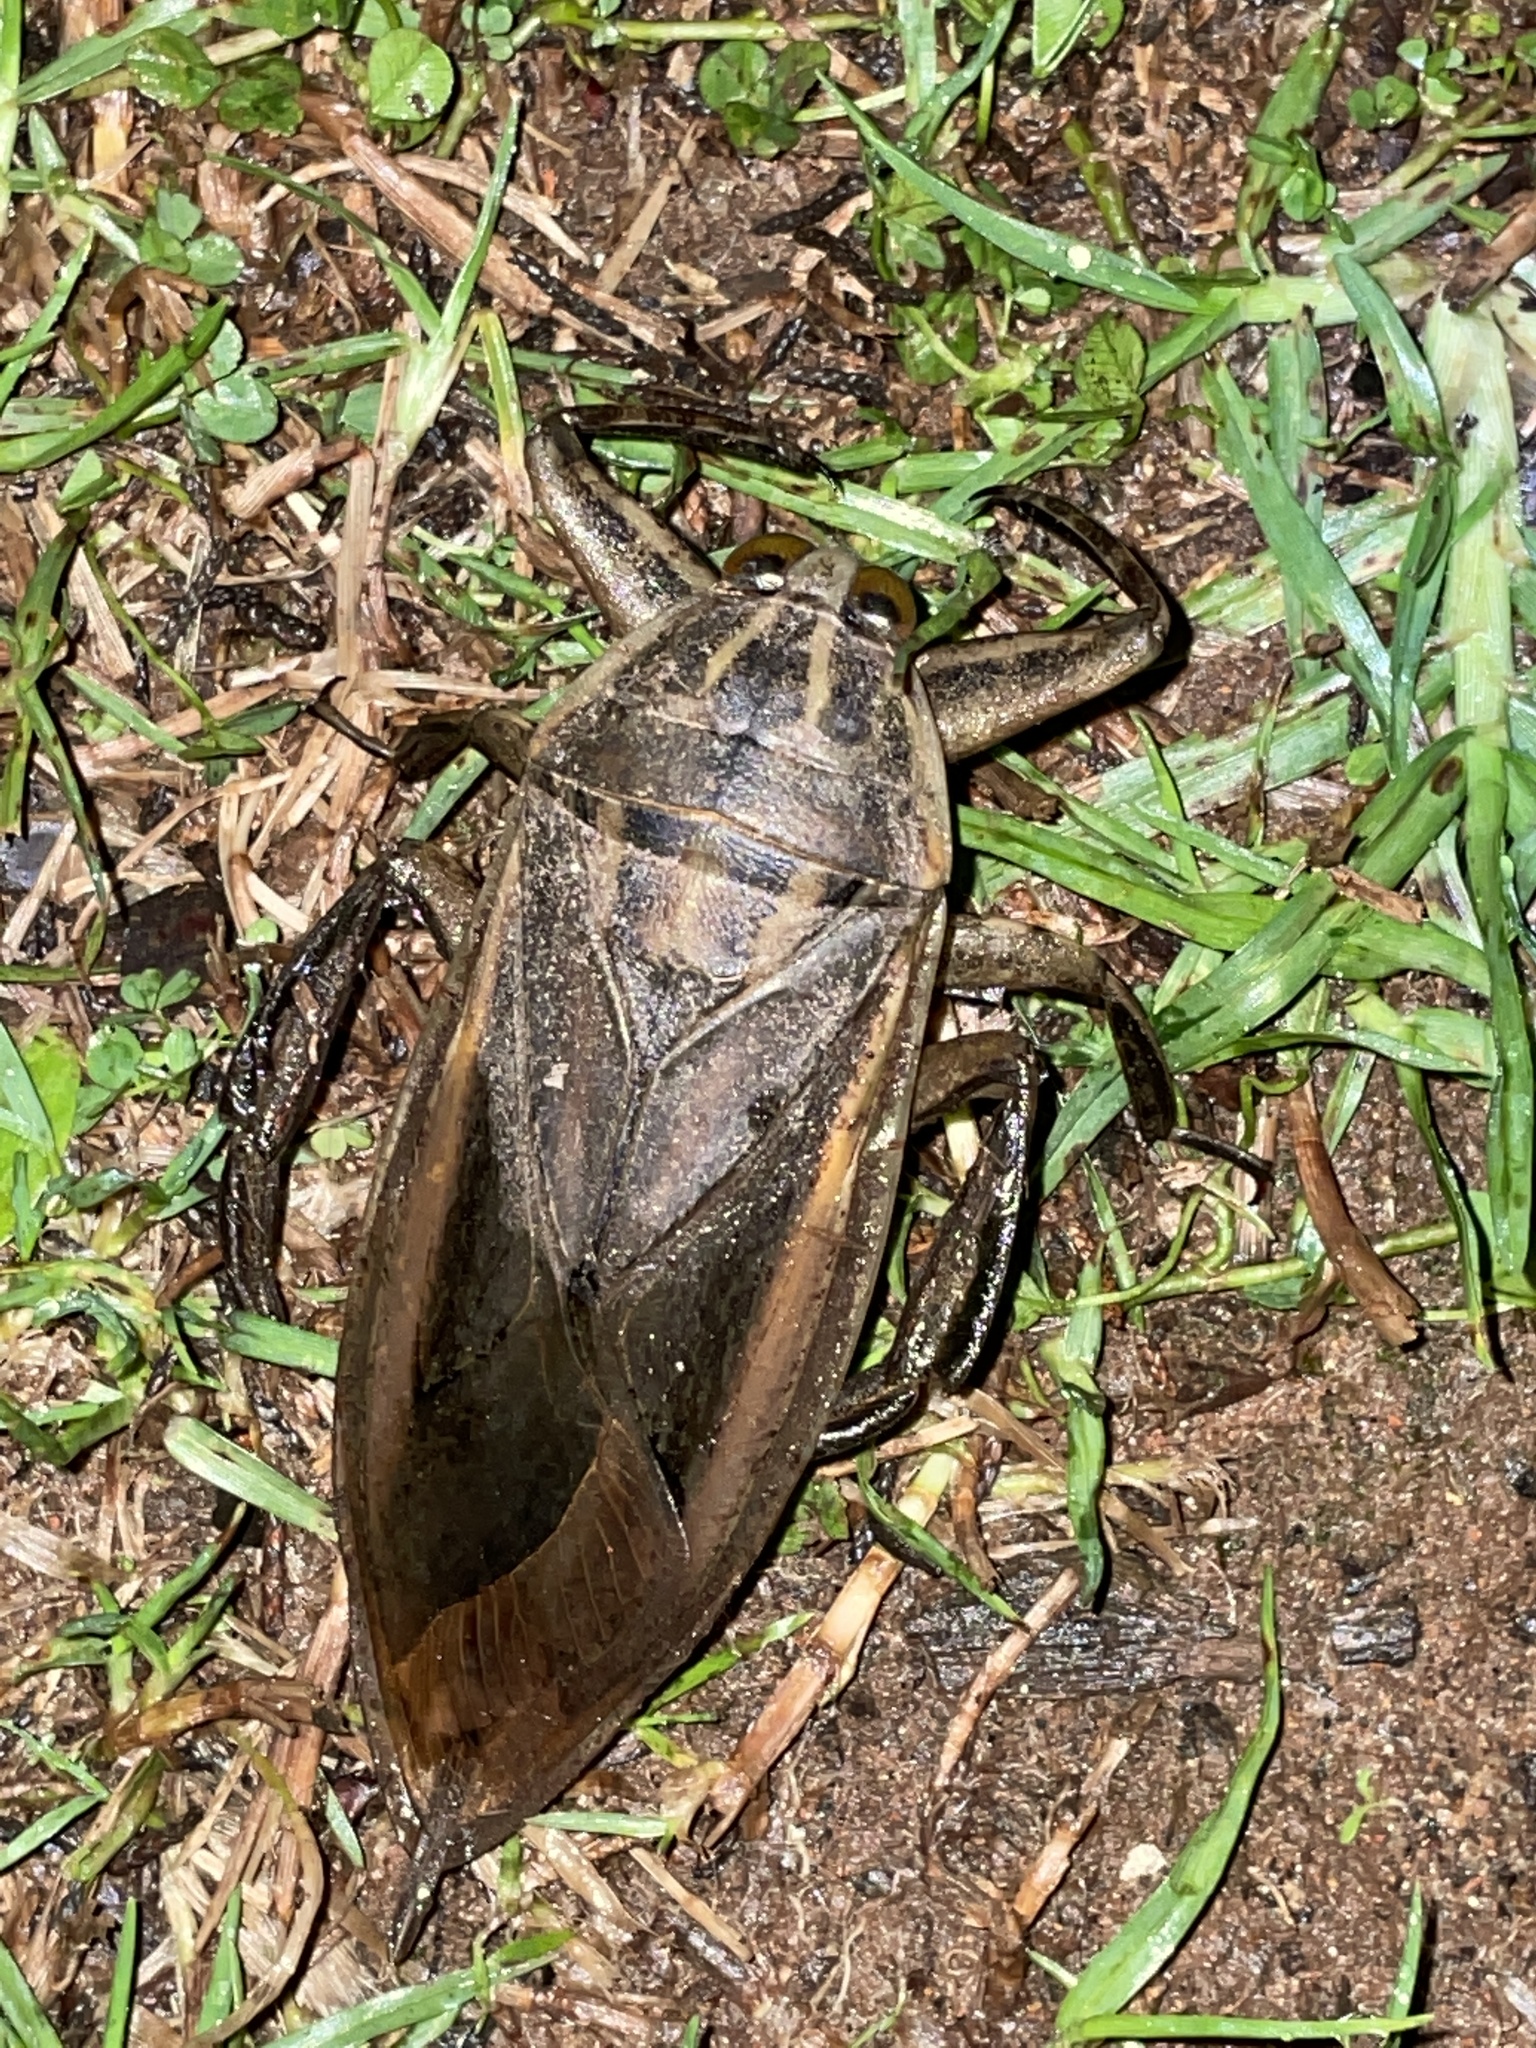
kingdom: Animalia
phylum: Arthropoda
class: Insecta
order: Hemiptera
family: Belostomatidae
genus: Lethocerus
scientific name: Lethocerus indicus
